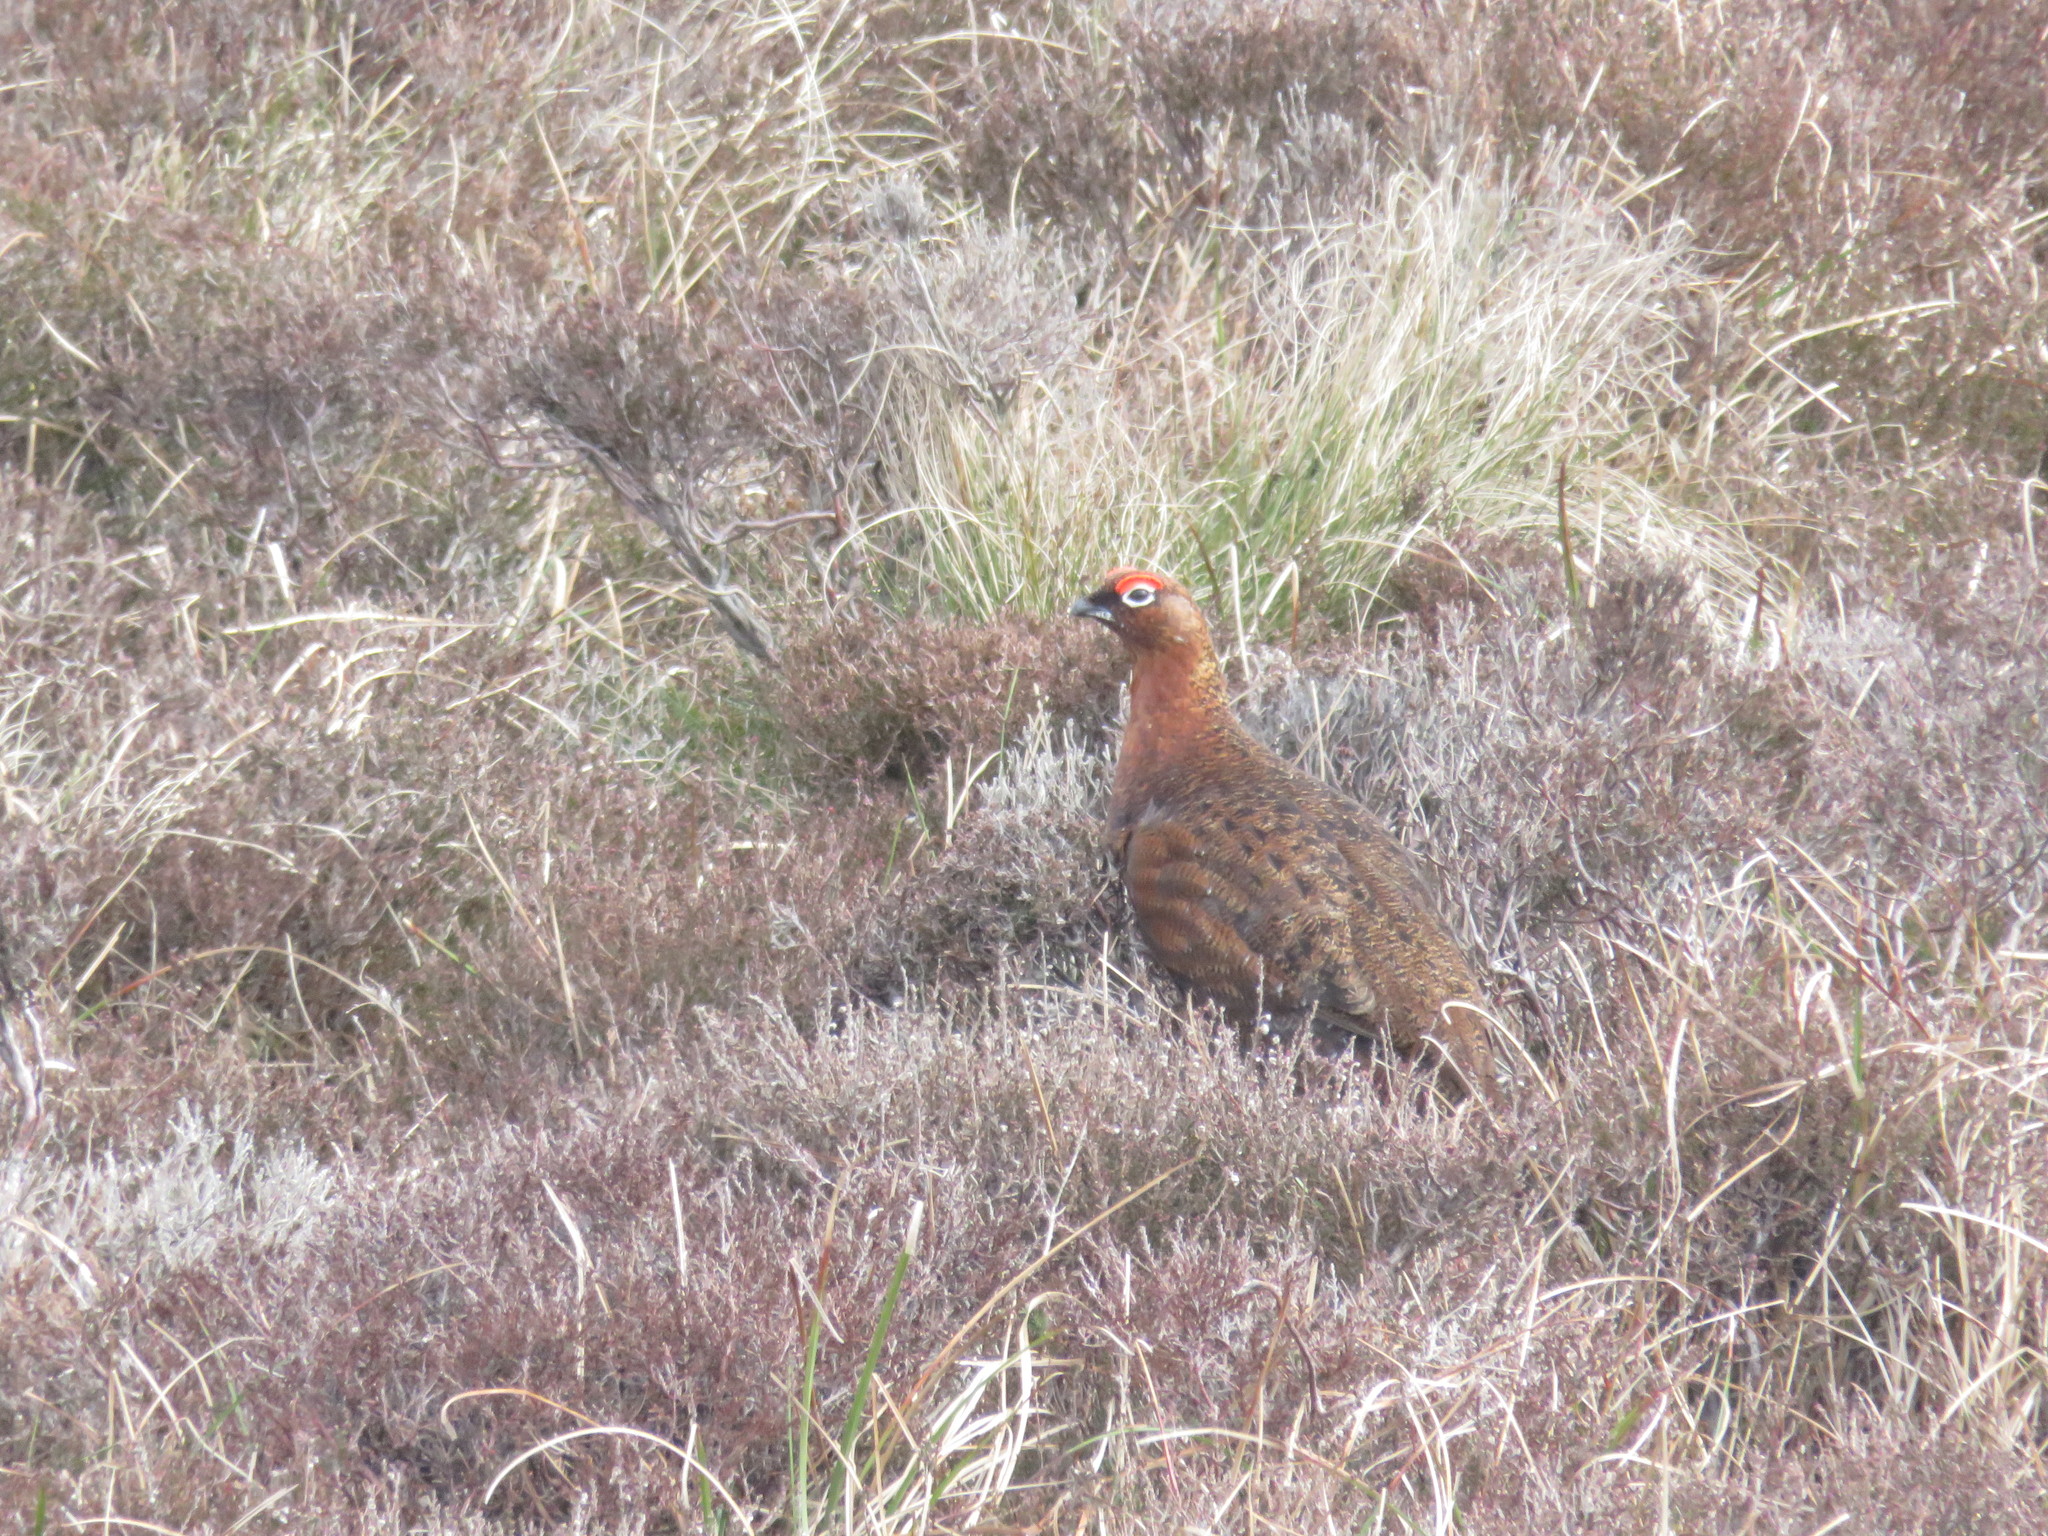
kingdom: Animalia
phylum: Chordata
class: Aves
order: Galliformes
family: Phasianidae
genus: Lagopus
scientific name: Lagopus lagopus
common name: Willow ptarmigan
